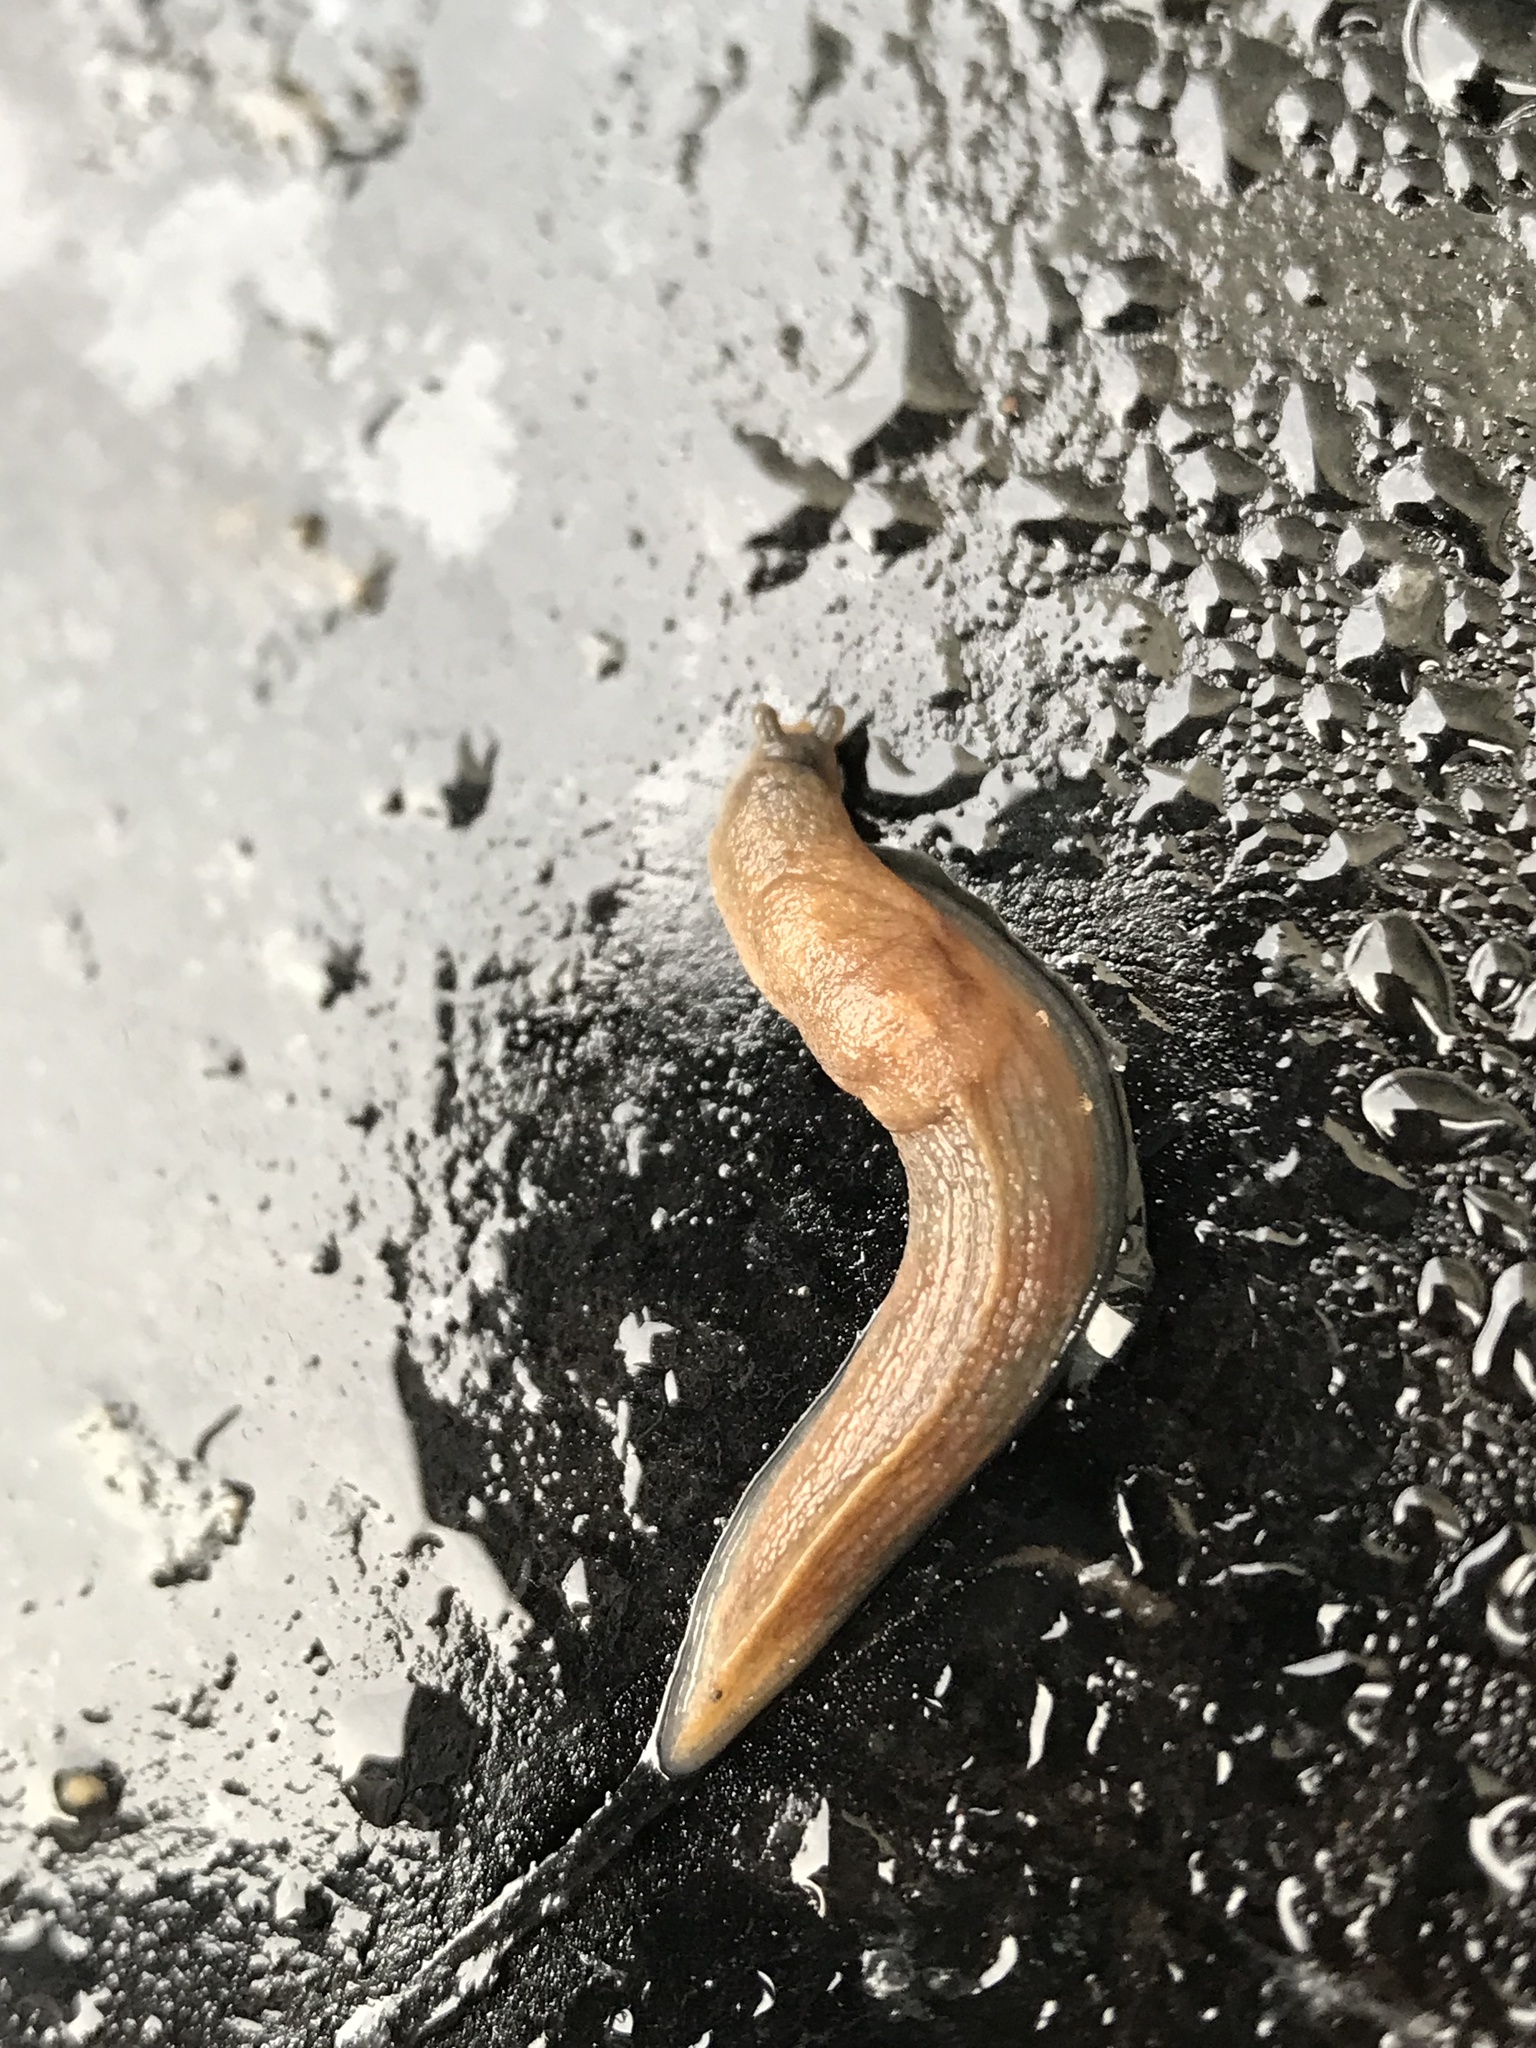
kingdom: Animalia
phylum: Mollusca
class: Gastropoda
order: Stylommatophora
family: Milacidae
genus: Milax
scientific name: Milax gagates
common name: Greenhouse slug
